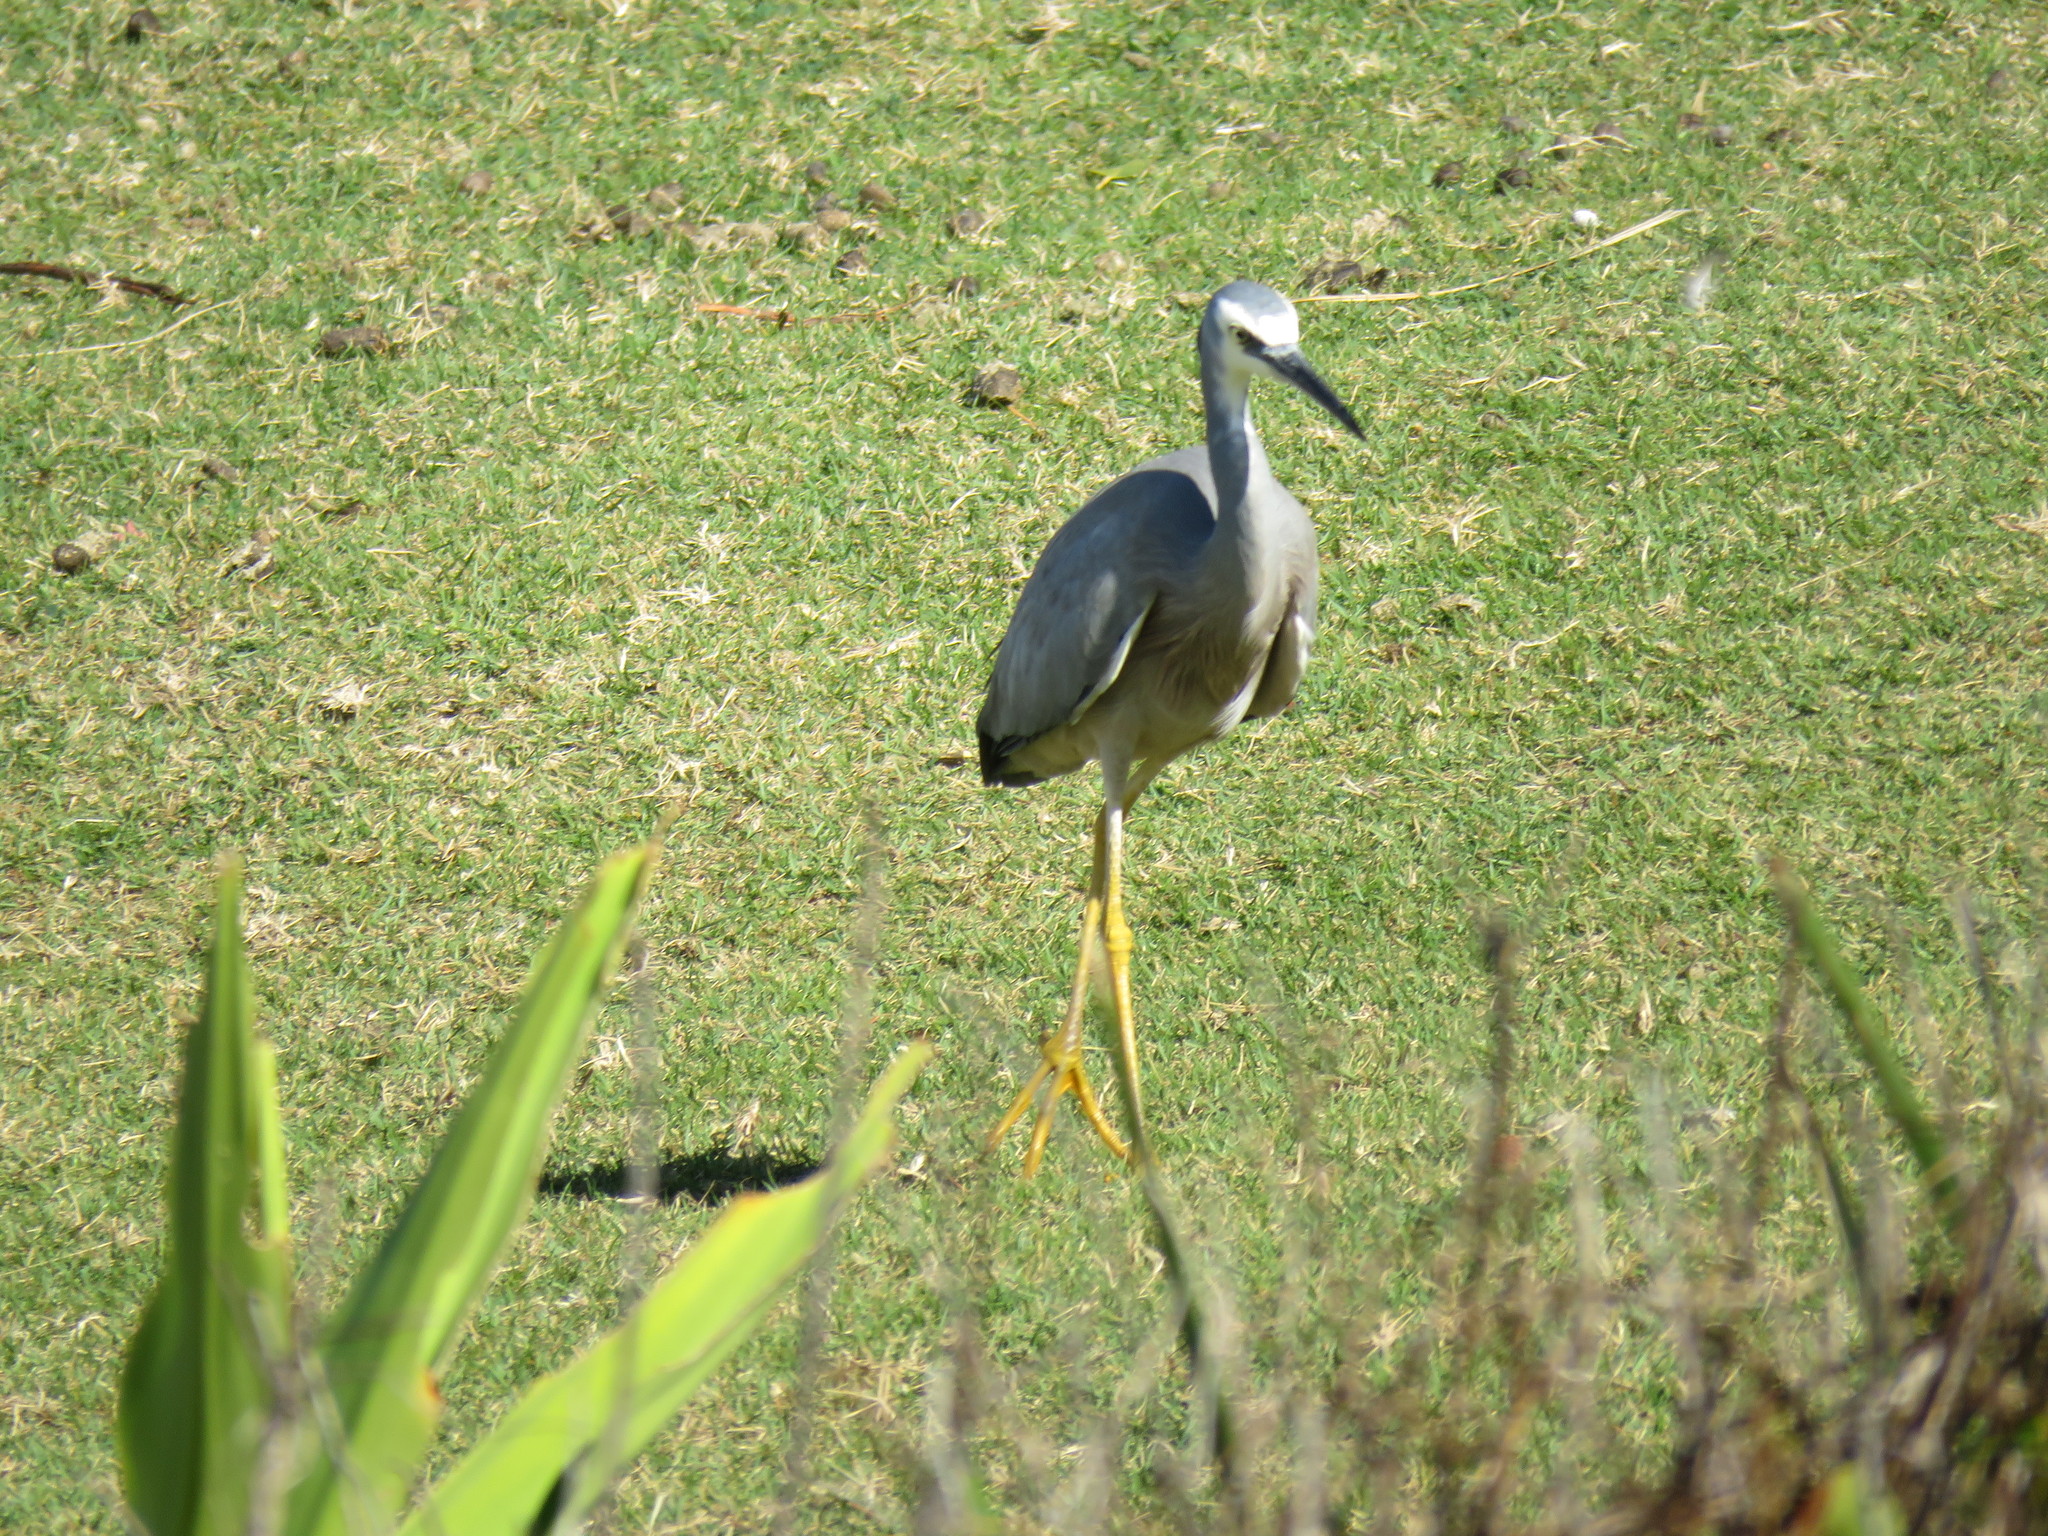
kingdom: Animalia
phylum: Chordata
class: Aves
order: Pelecaniformes
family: Ardeidae
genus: Egretta
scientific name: Egretta novaehollandiae
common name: White-faced heron
